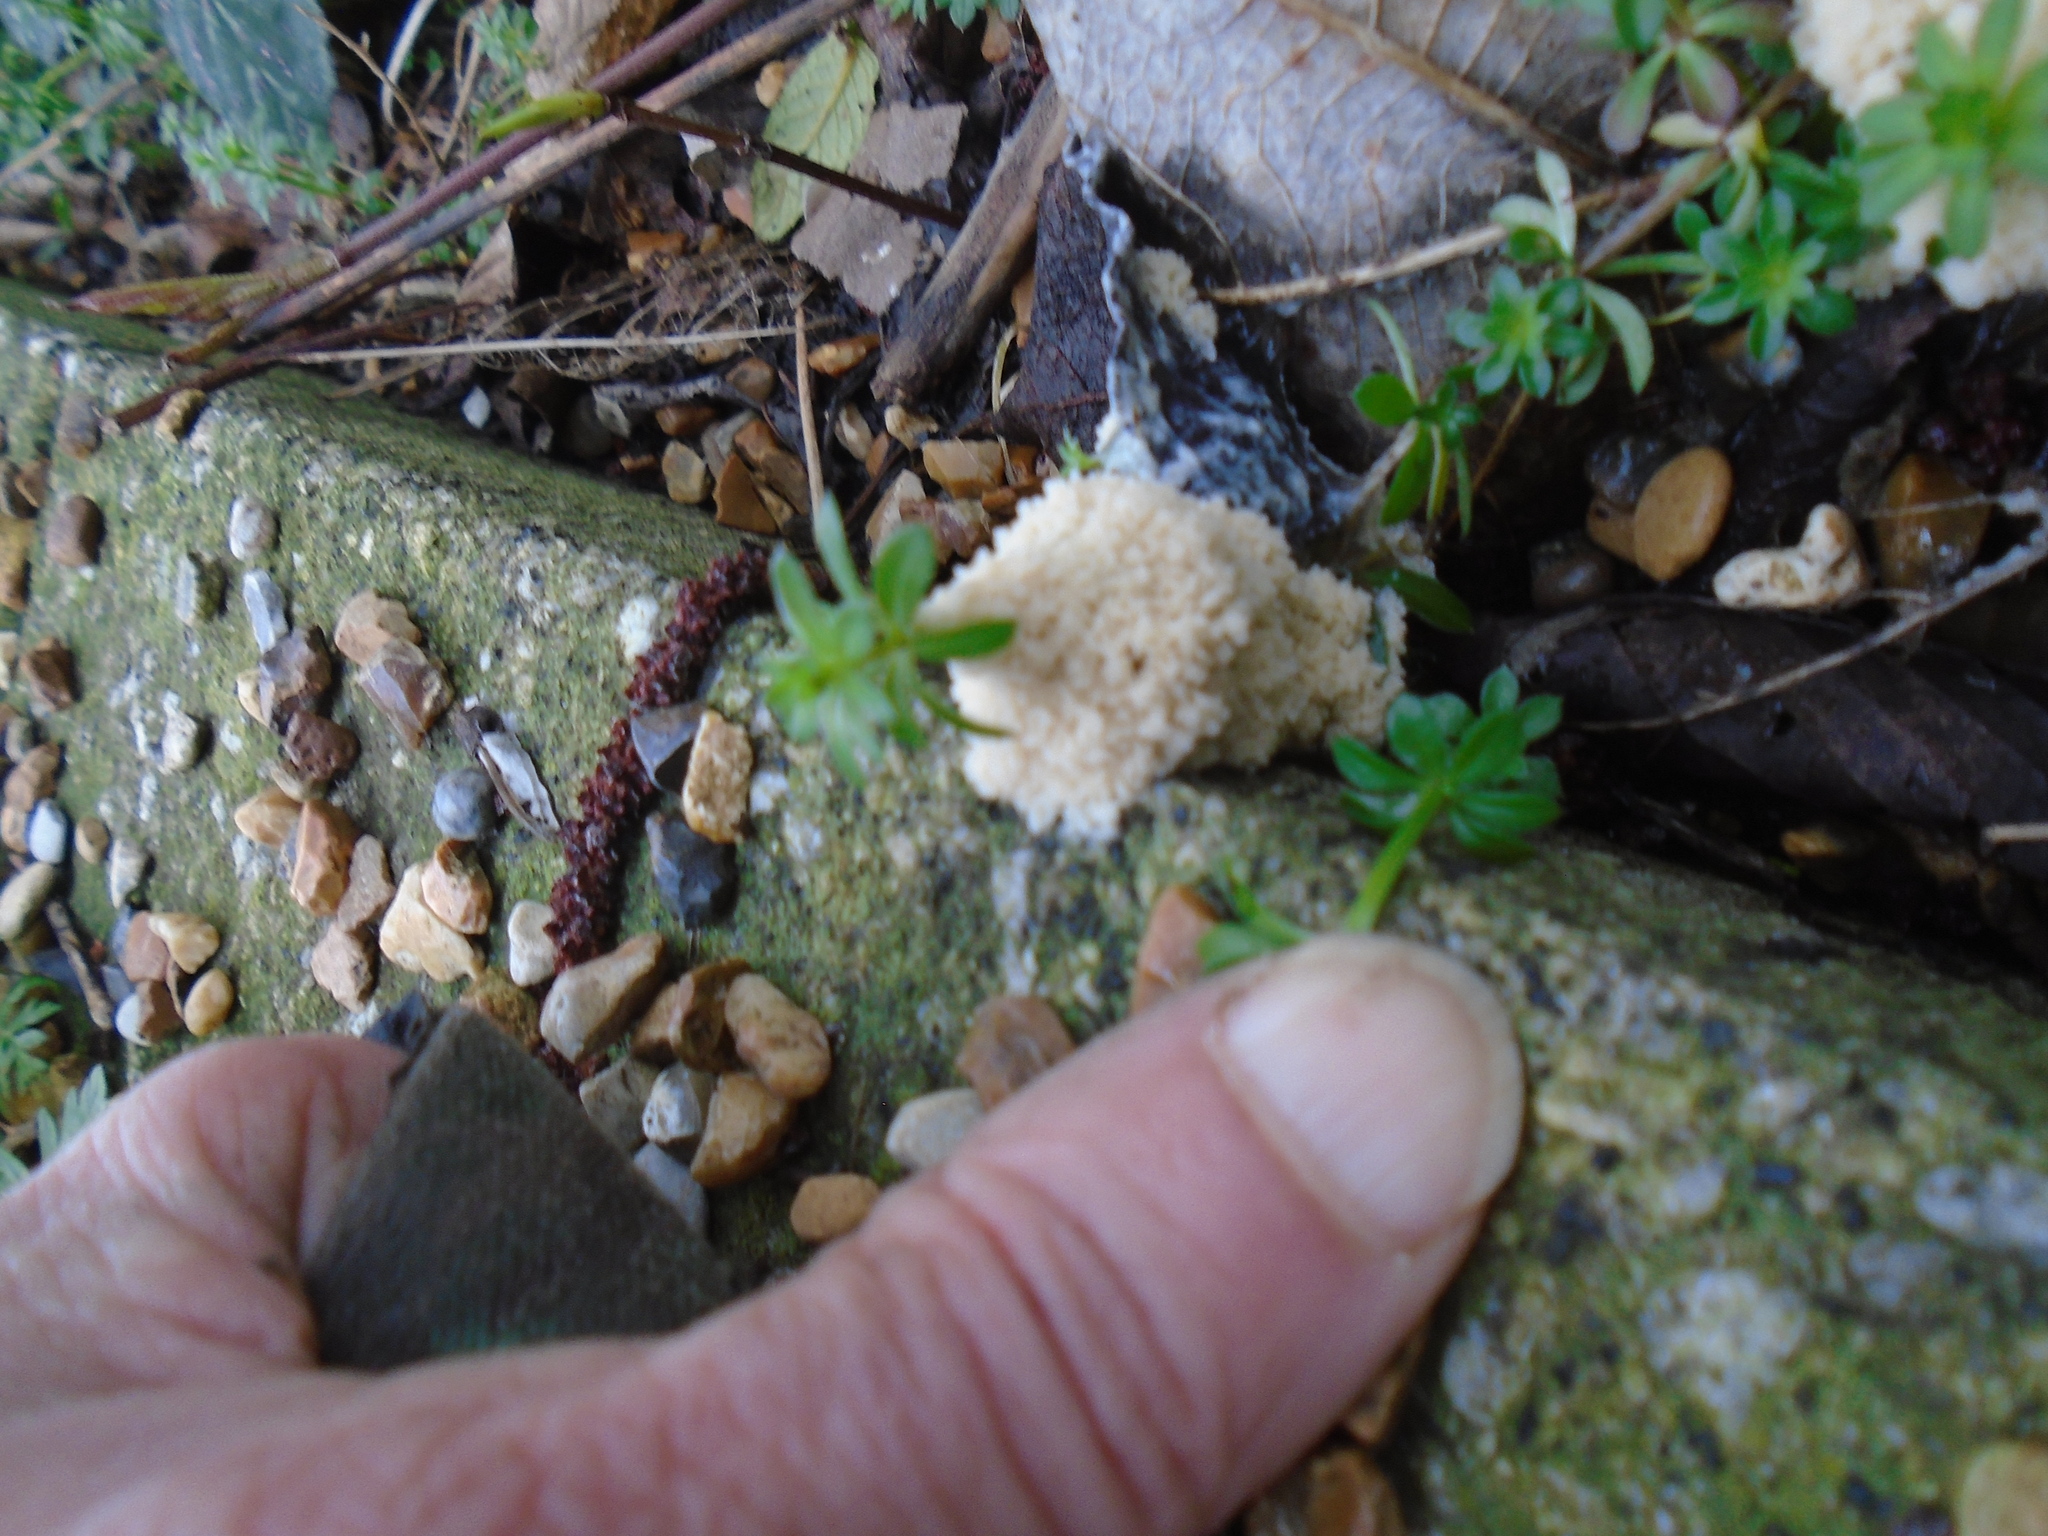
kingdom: Protozoa
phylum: Mycetozoa
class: Myxomycetes
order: Physarales
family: Physaraceae
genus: Didymium
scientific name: Didymium
